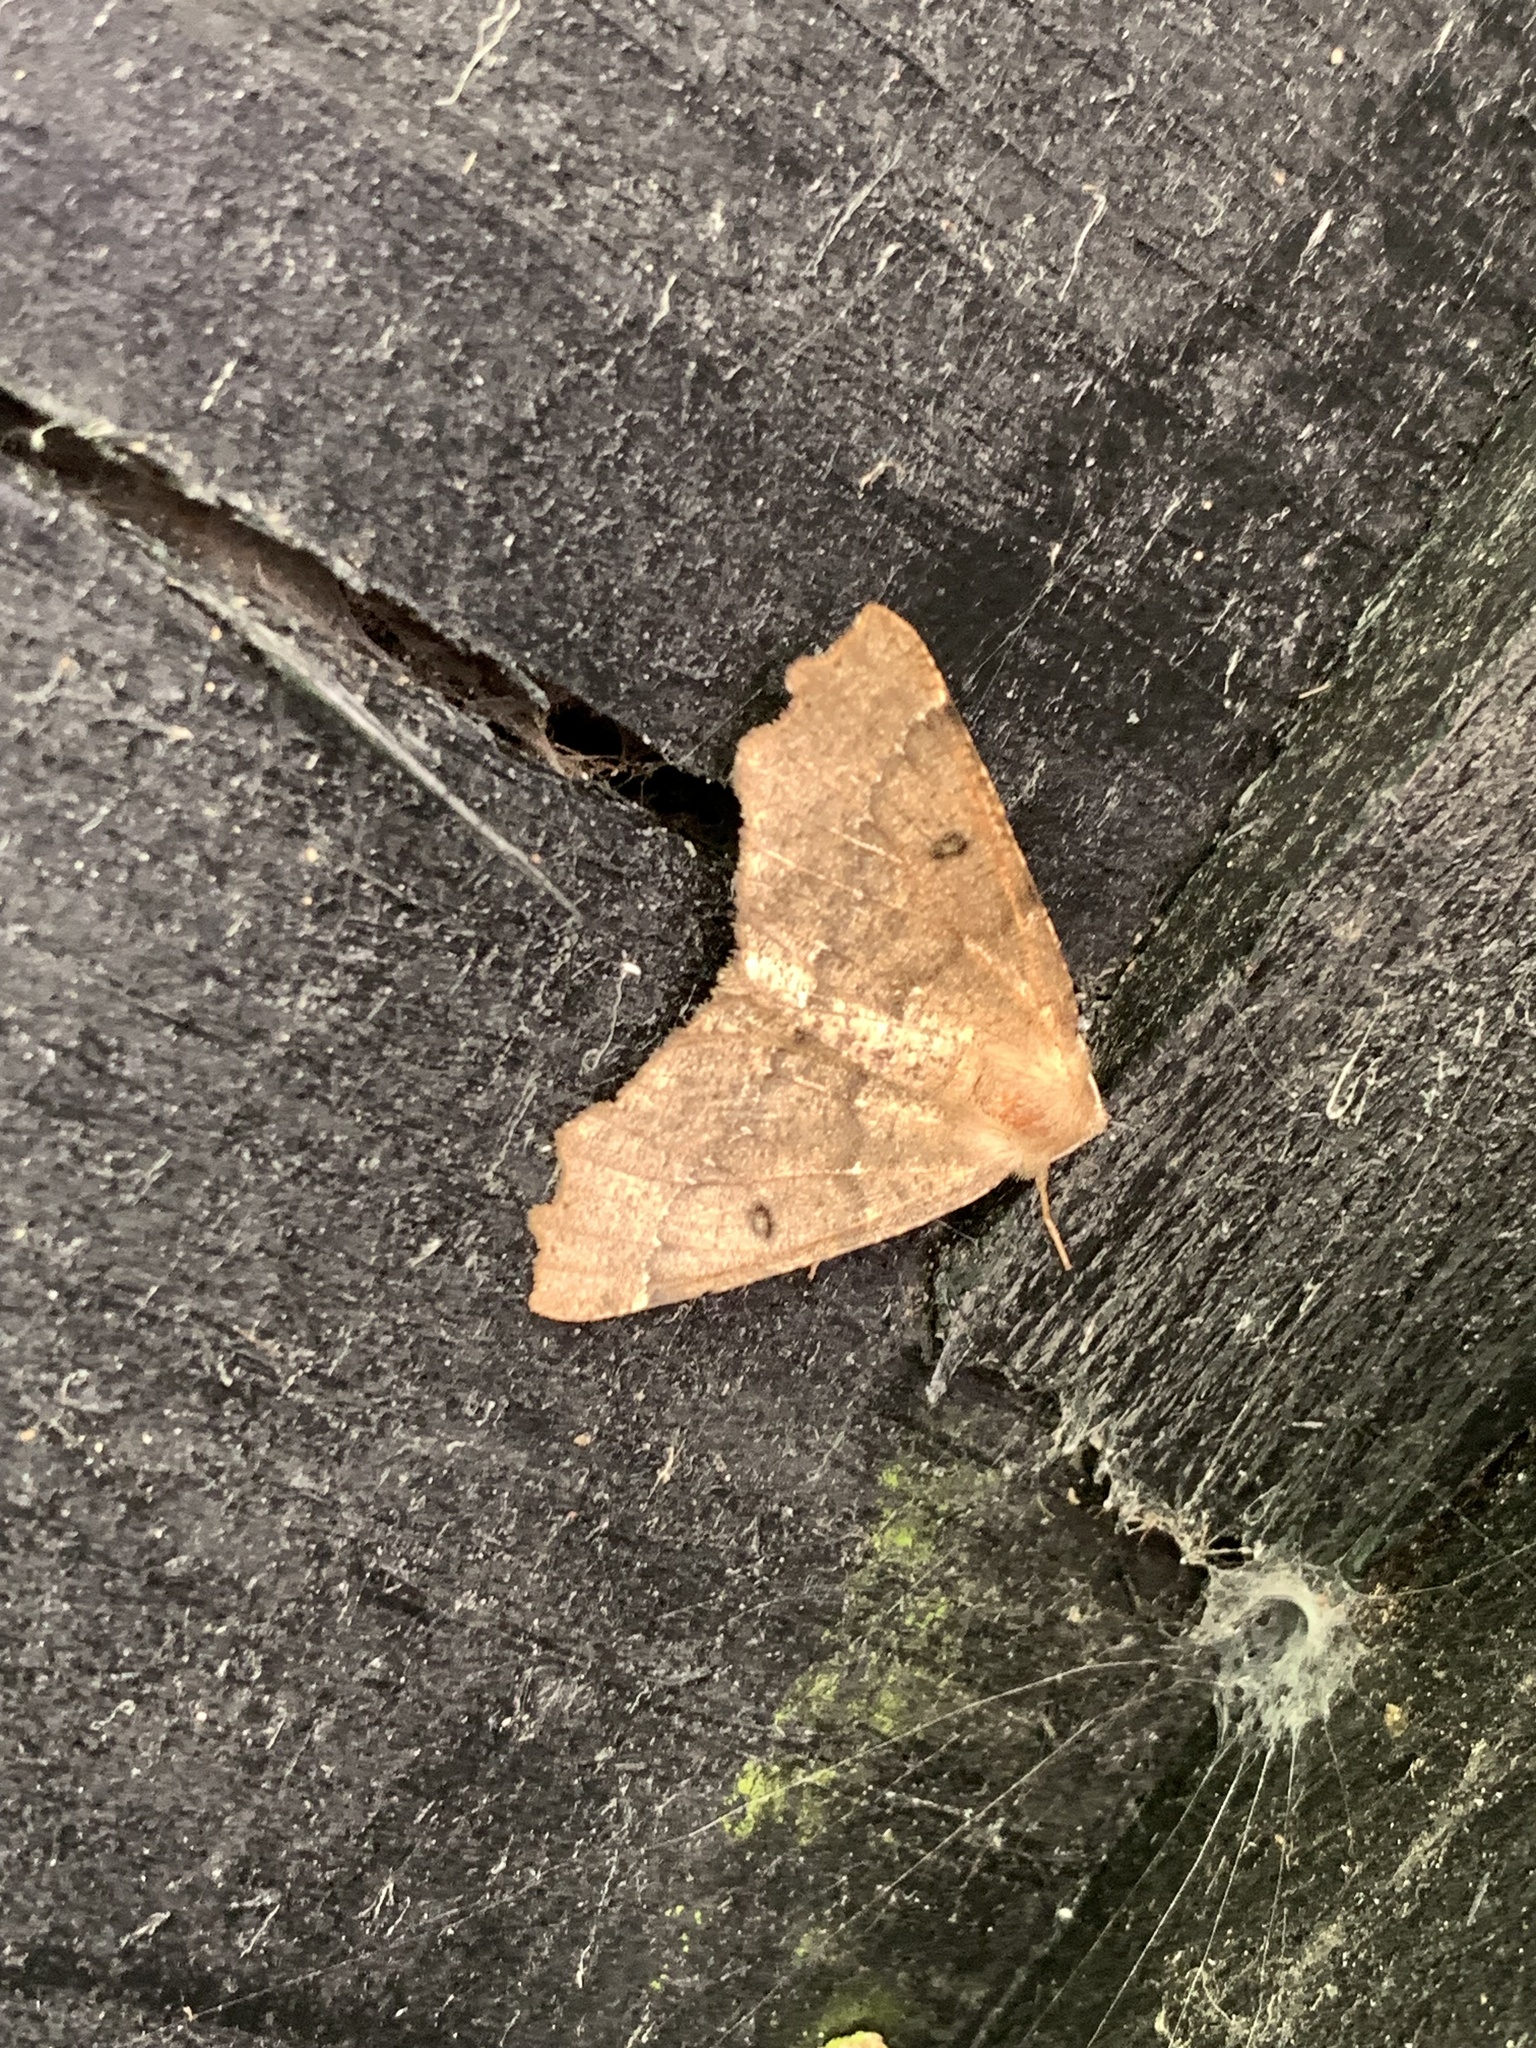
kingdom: Animalia
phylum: Arthropoda
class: Insecta
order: Lepidoptera
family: Geometridae
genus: Odontopera
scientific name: Odontopera bidentata
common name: Scalloped hazel
